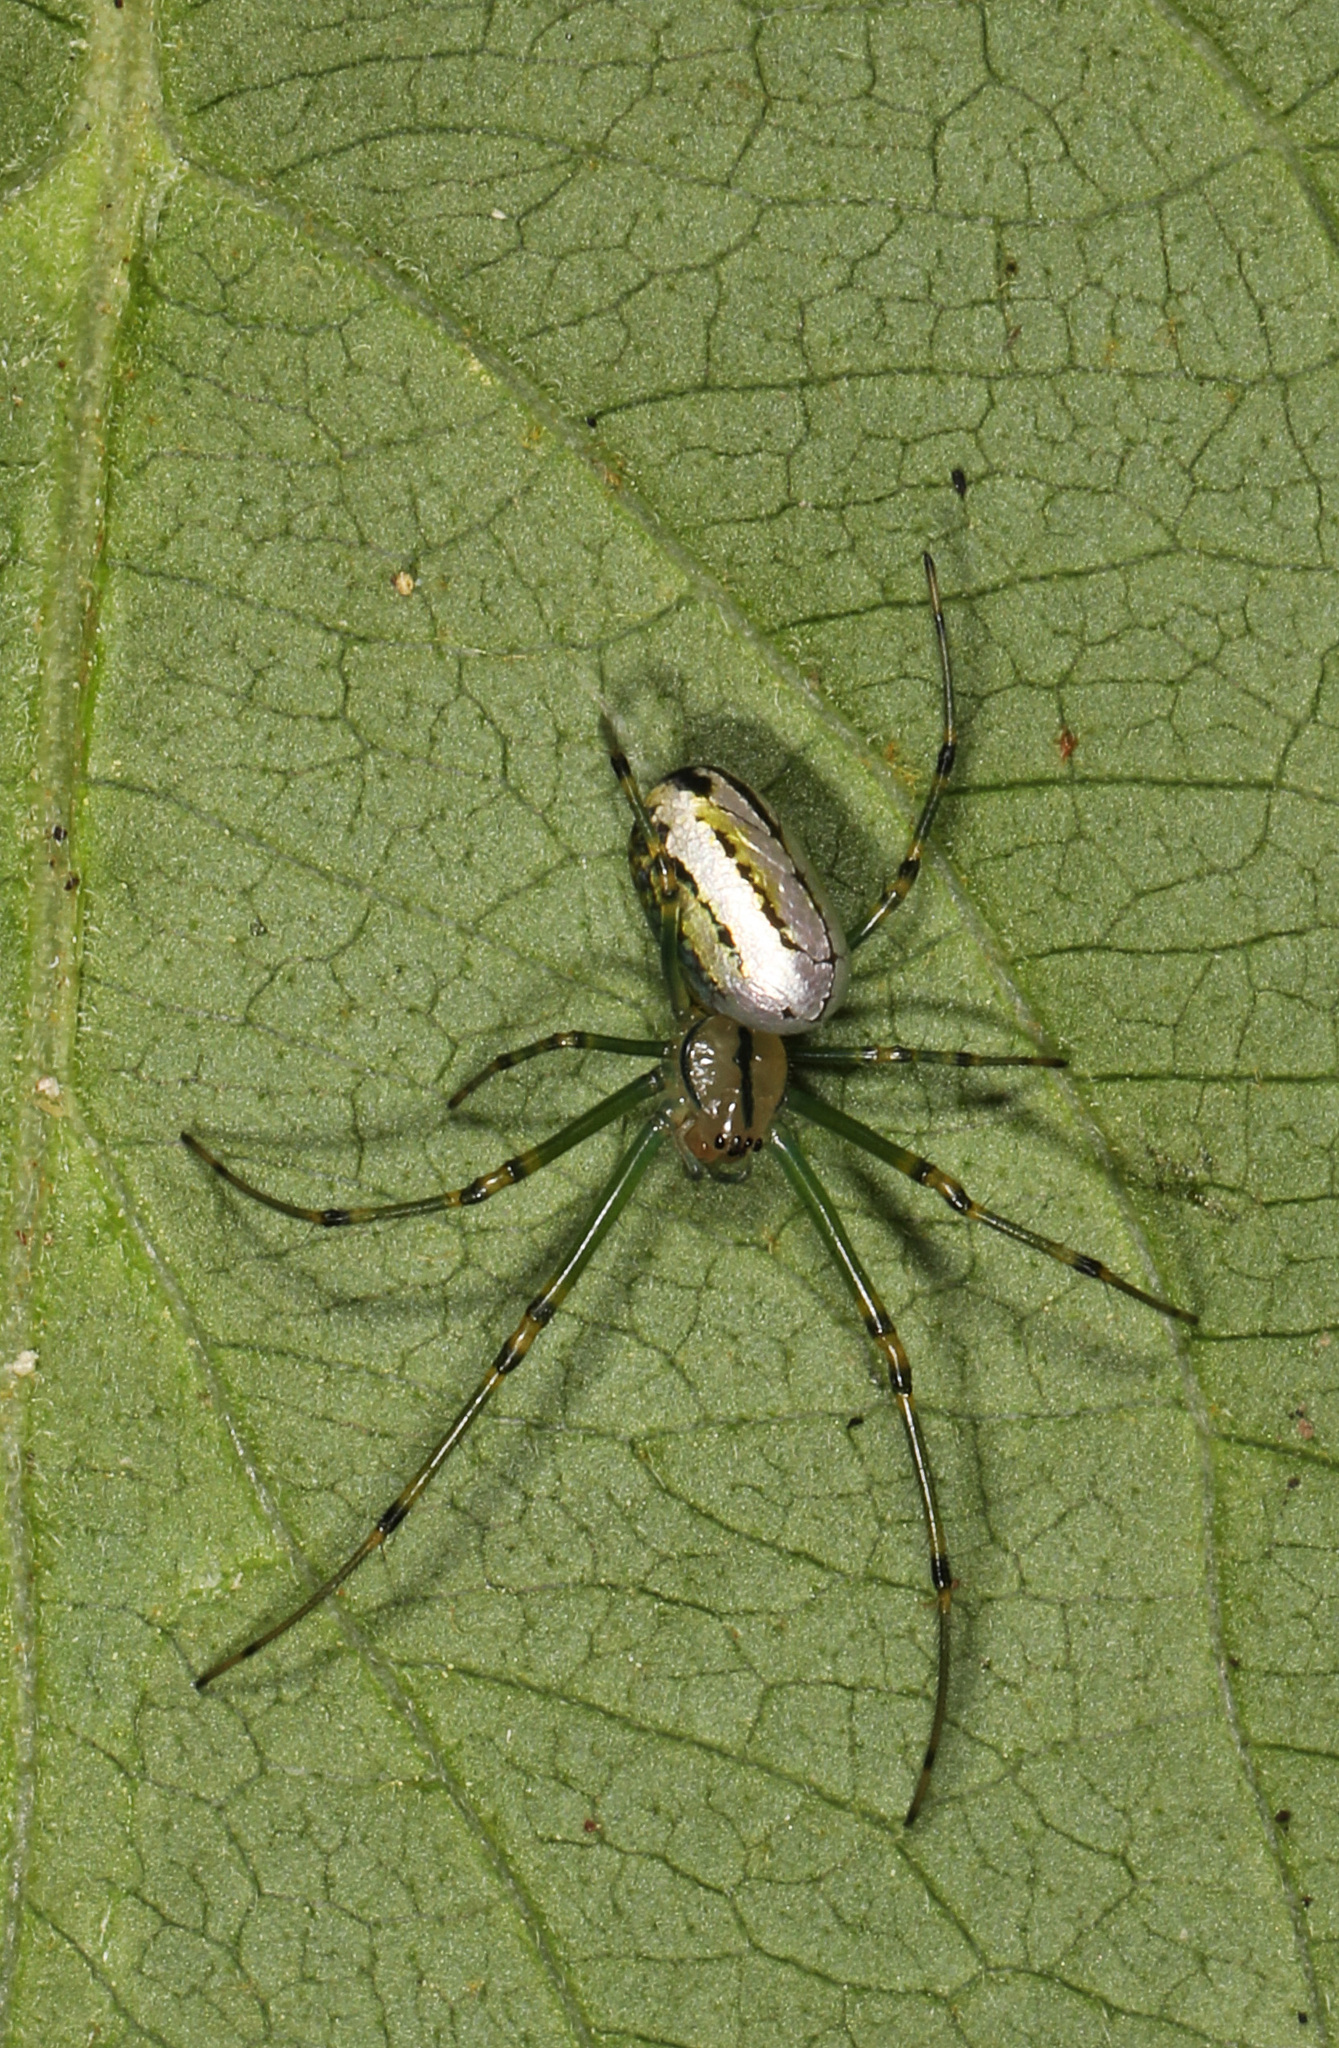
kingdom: Animalia
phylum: Arthropoda
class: Arachnida
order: Araneae
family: Tetragnathidae
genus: Leucauge
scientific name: Leucauge venusta
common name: Longjawed orb weavers
